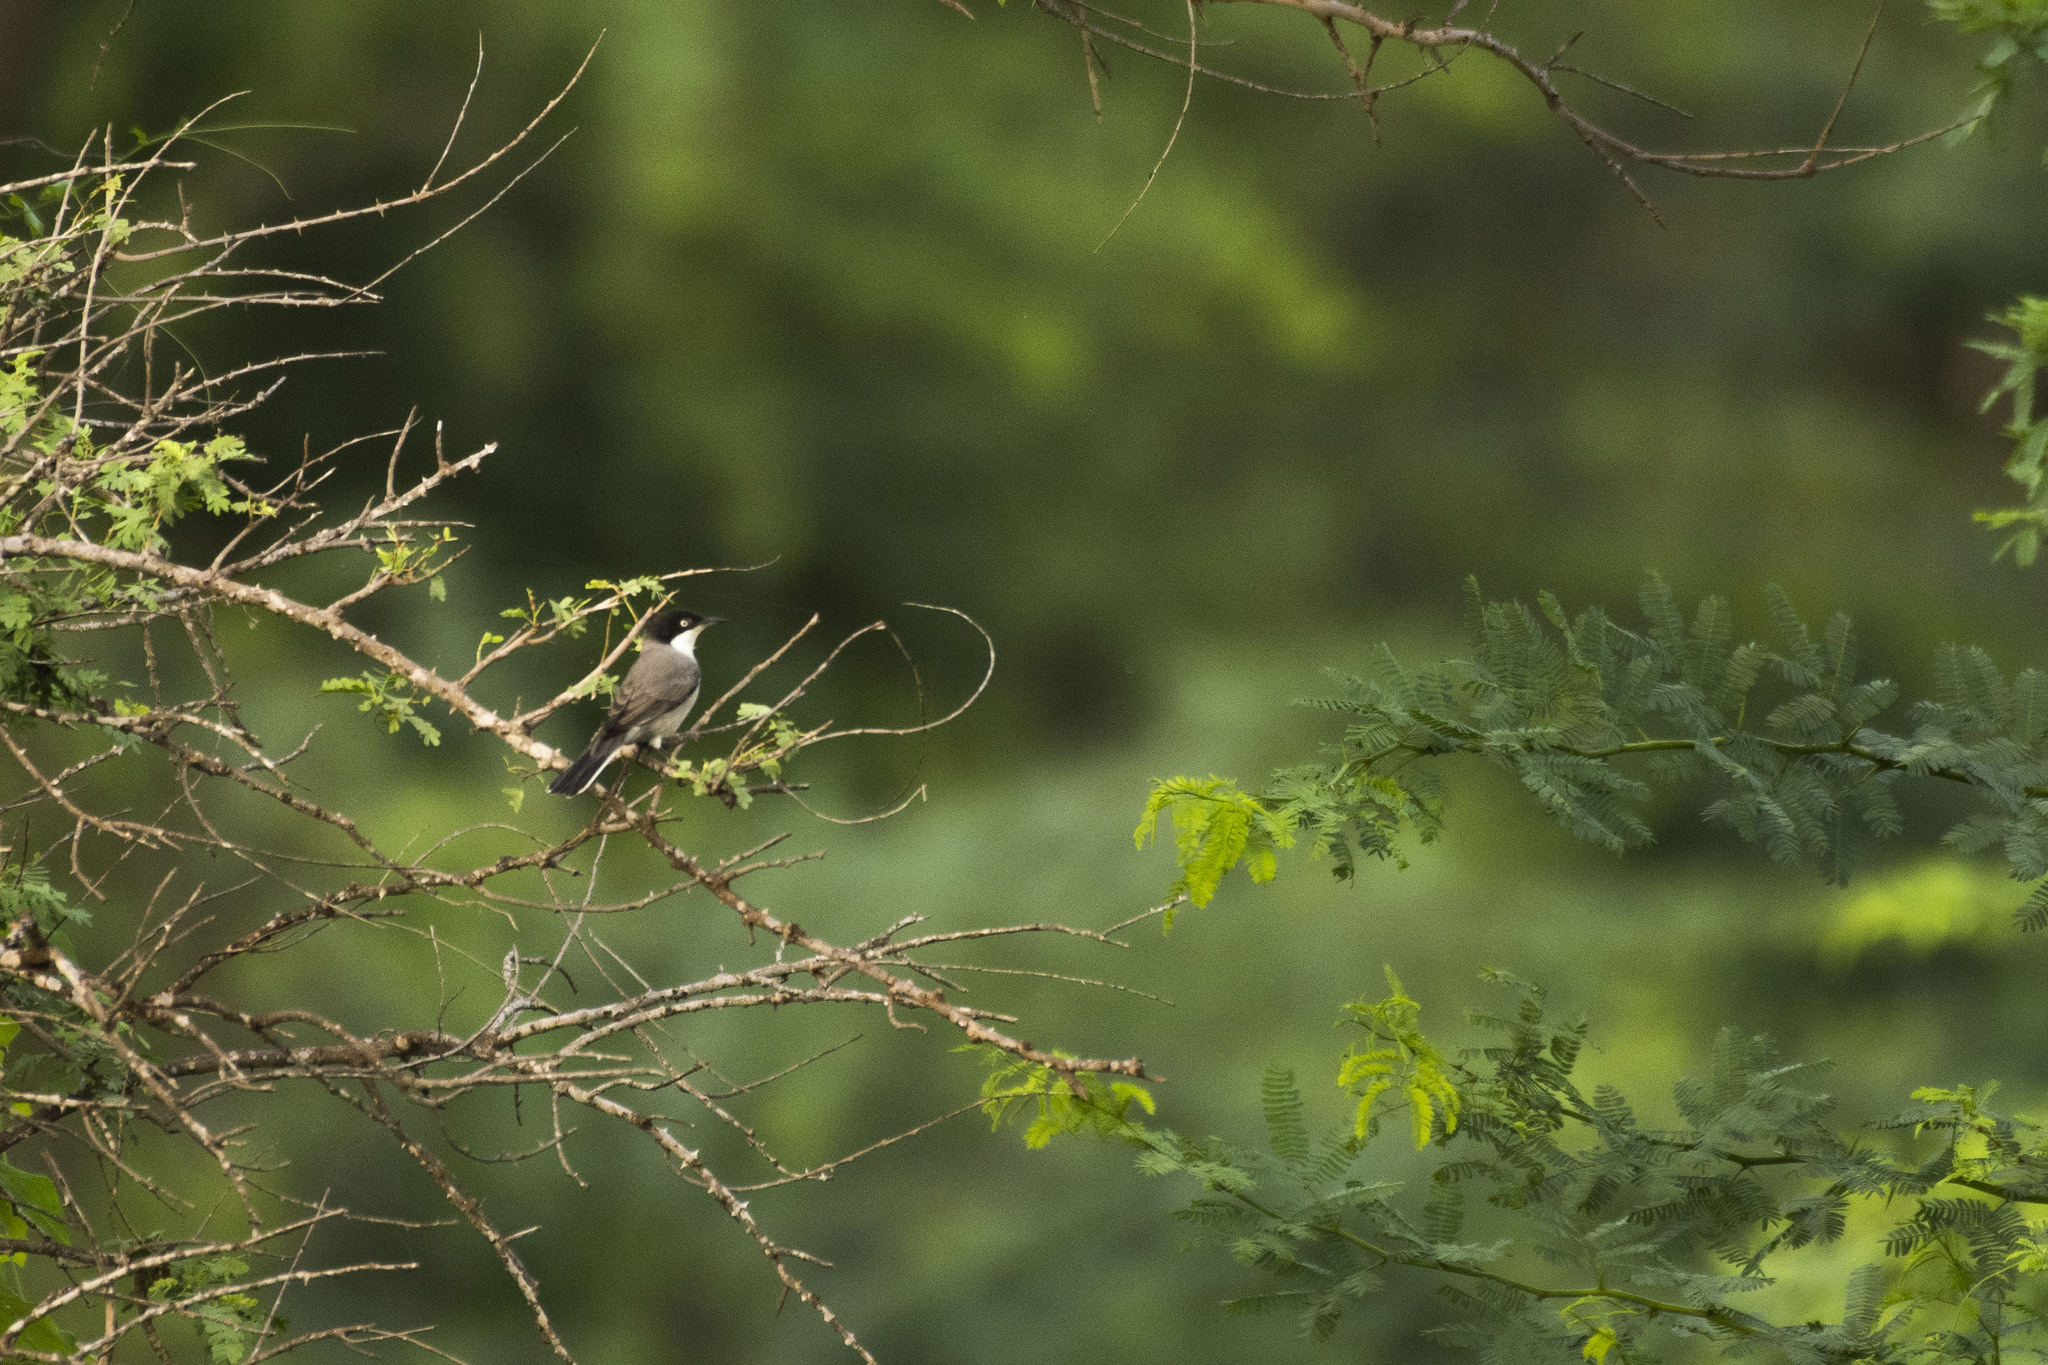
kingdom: Animalia
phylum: Chordata
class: Aves
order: Passeriformes
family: Sylviidae
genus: Sylvia
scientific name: Sylvia crassirostris
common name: Eastern orphean warbler
